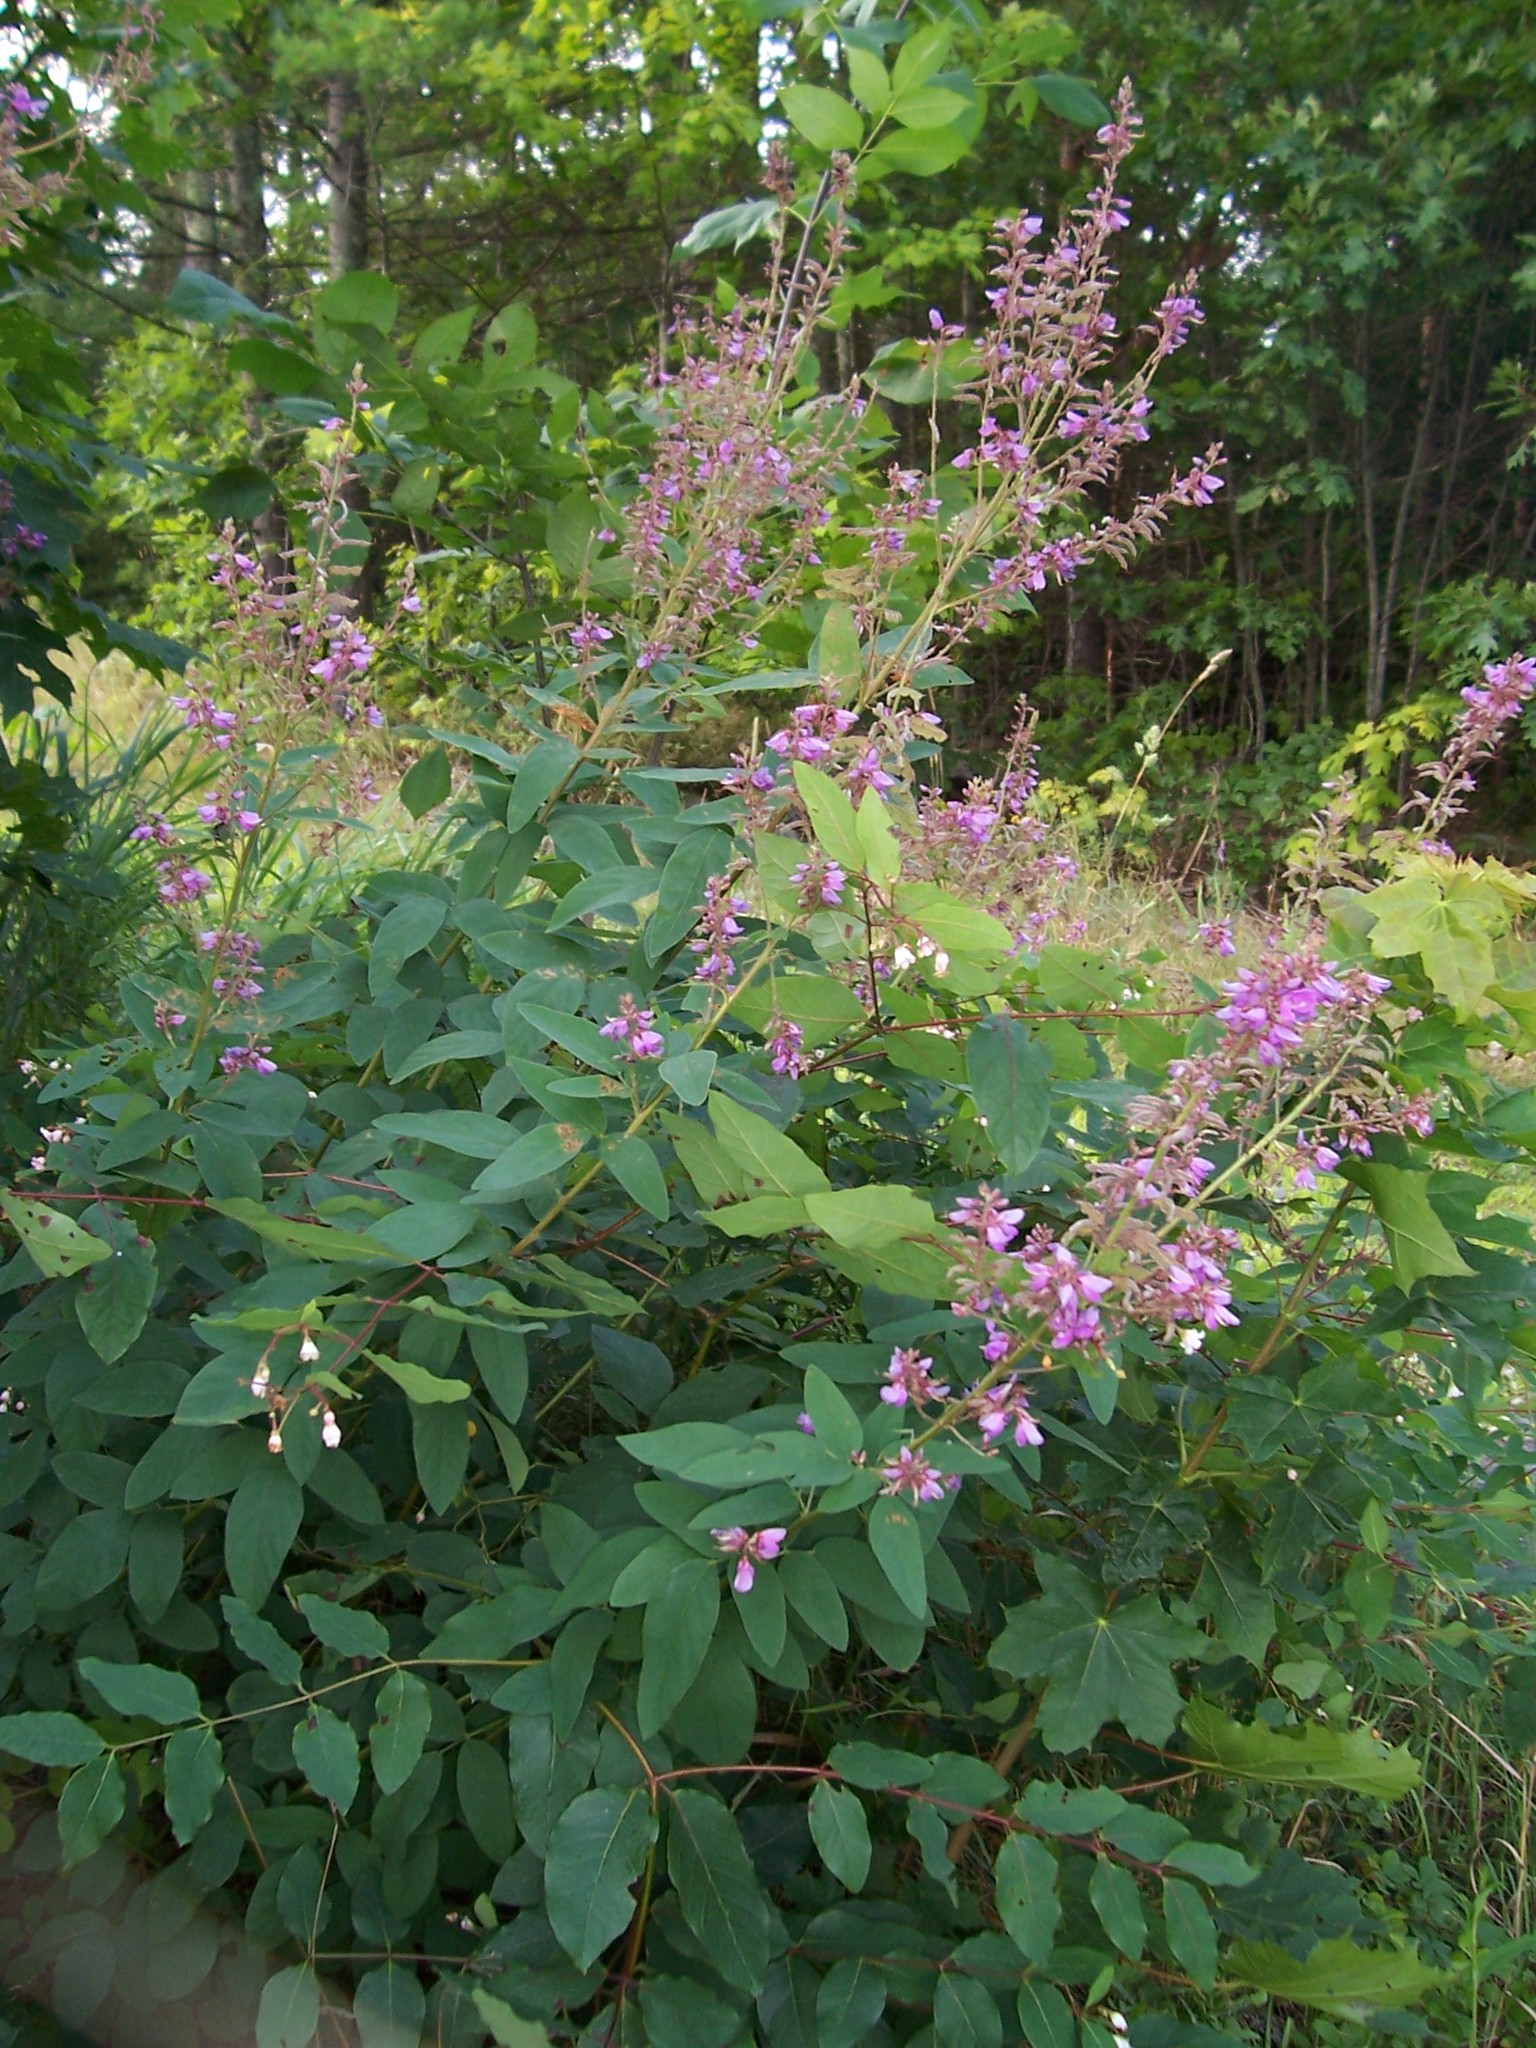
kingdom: Plantae
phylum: Tracheophyta
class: Magnoliopsida
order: Fabales
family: Fabaceae
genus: Desmodium
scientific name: Desmodium canadense
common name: Canada tick-trefoil
